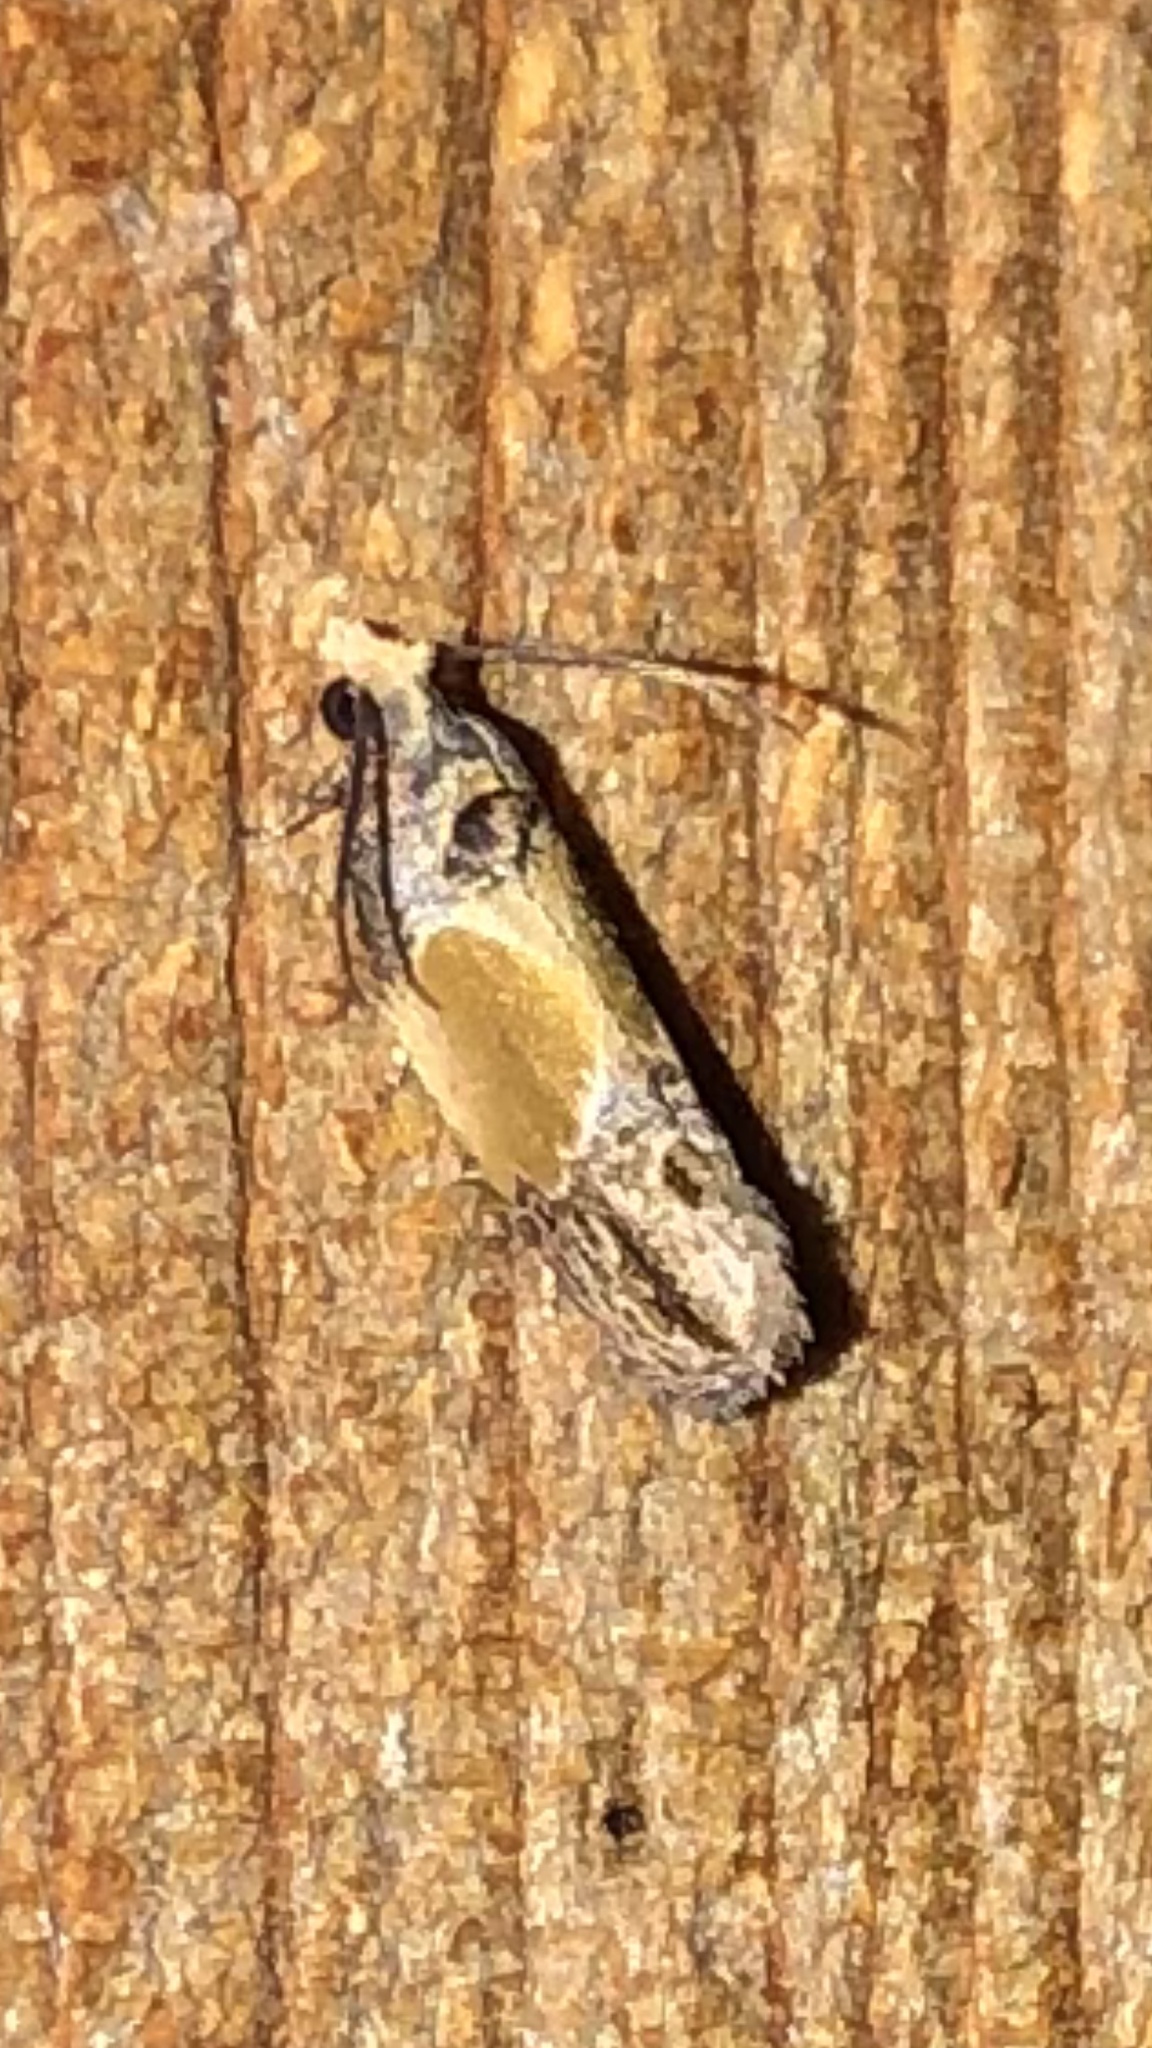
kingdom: Animalia
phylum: Arthropoda
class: Insecta
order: Lepidoptera
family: Tortricidae
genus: Eumarozia
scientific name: Eumarozia malachitana
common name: Sculptured moth
